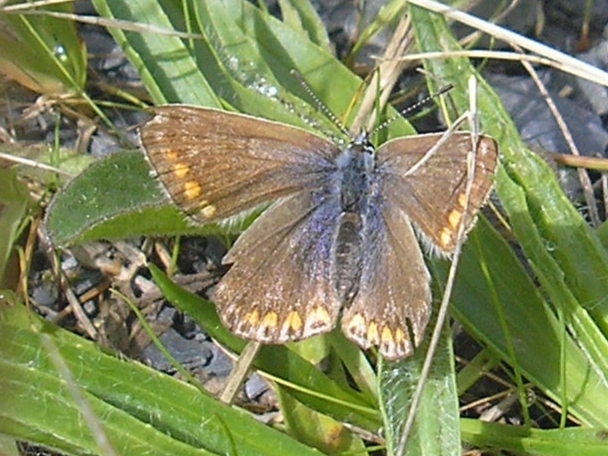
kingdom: Animalia
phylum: Arthropoda
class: Insecta
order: Lepidoptera
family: Lycaenidae
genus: Polyommatus
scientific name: Polyommatus icarus
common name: Common blue
